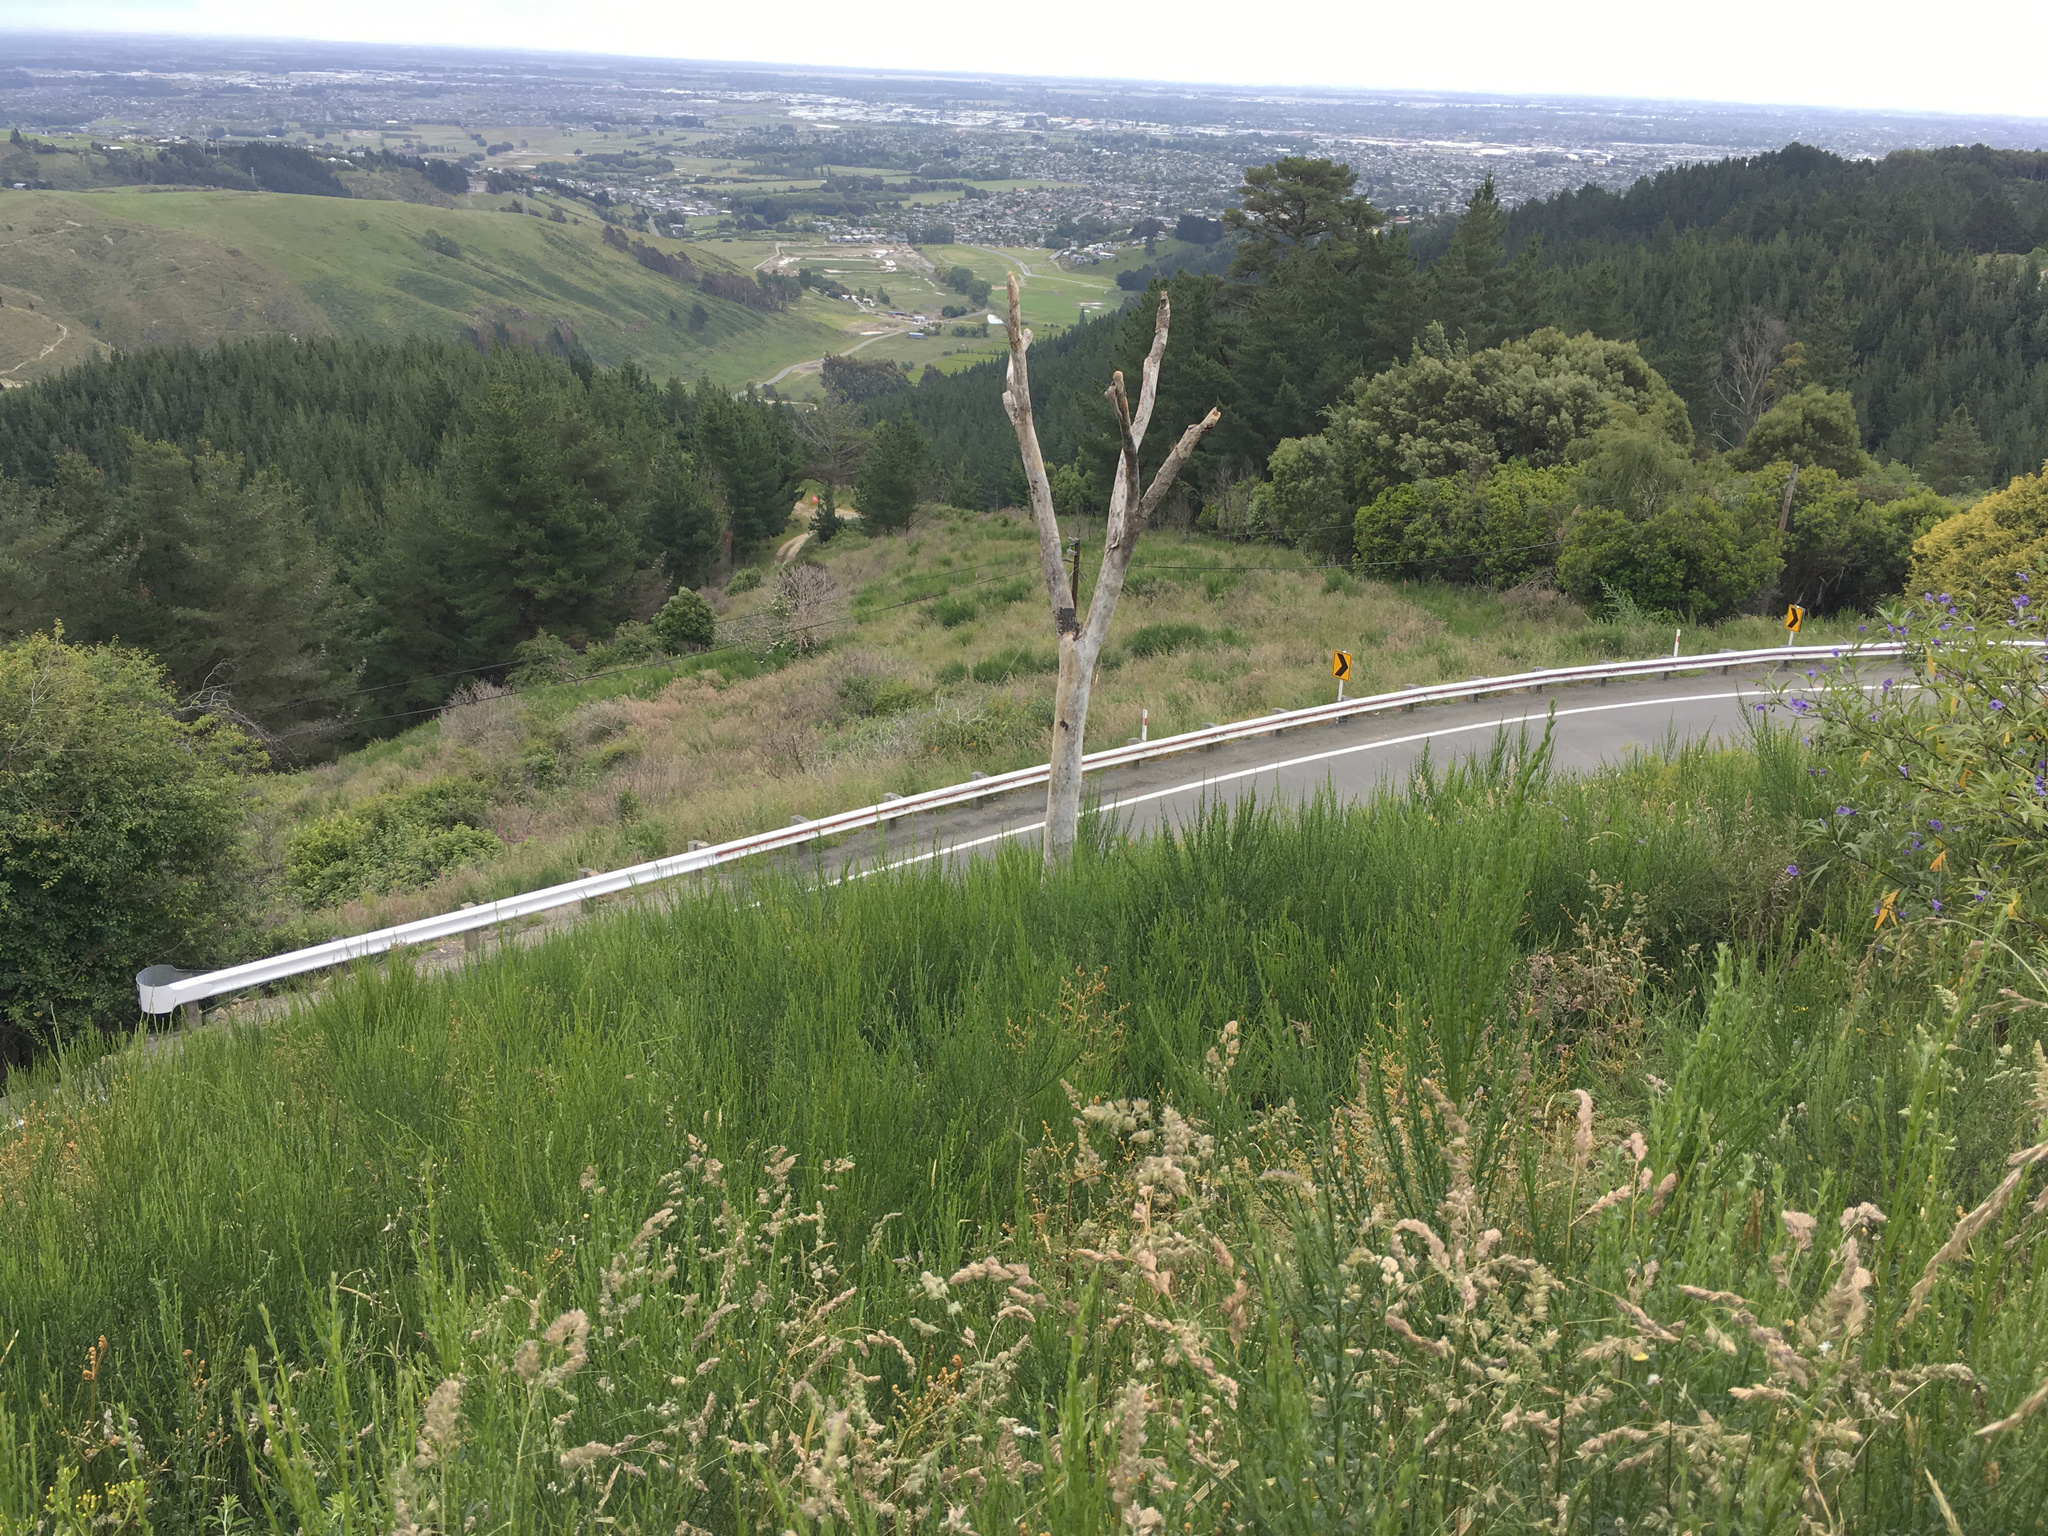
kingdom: Plantae
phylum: Tracheophyta
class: Liliopsida
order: Asparagales
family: Asparagaceae
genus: Cordyline
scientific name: Cordyline australis
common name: Cabbage-palm
